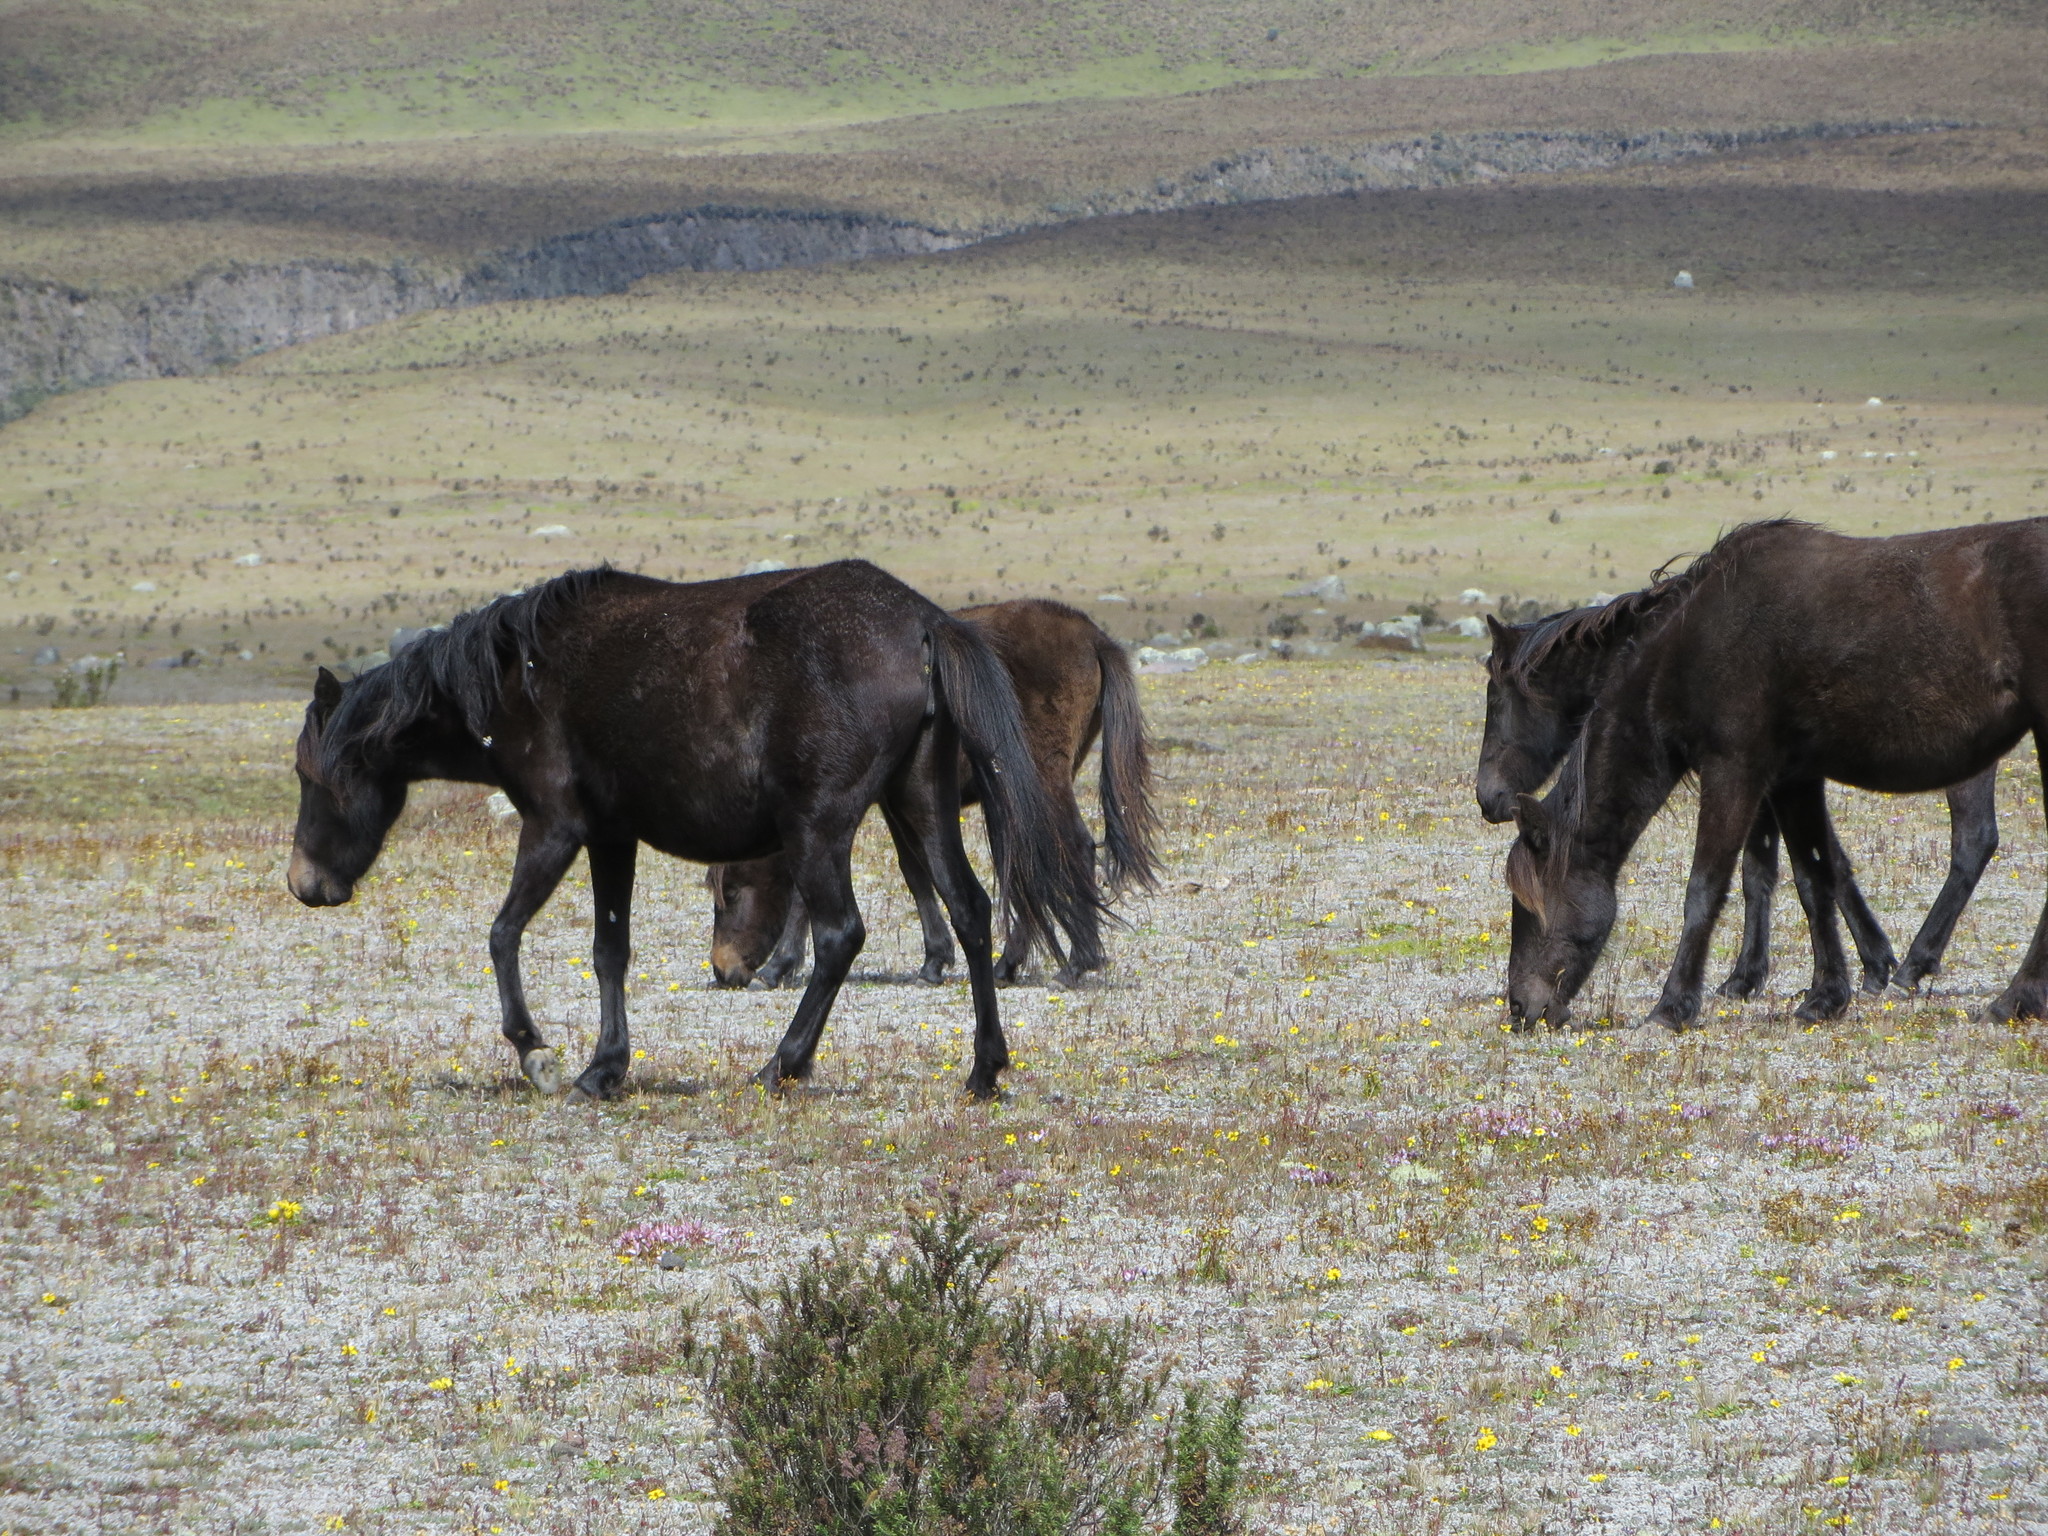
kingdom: Animalia
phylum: Chordata
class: Mammalia
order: Perissodactyla
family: Equidae
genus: Equus
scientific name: Equus caballus
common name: Horse
